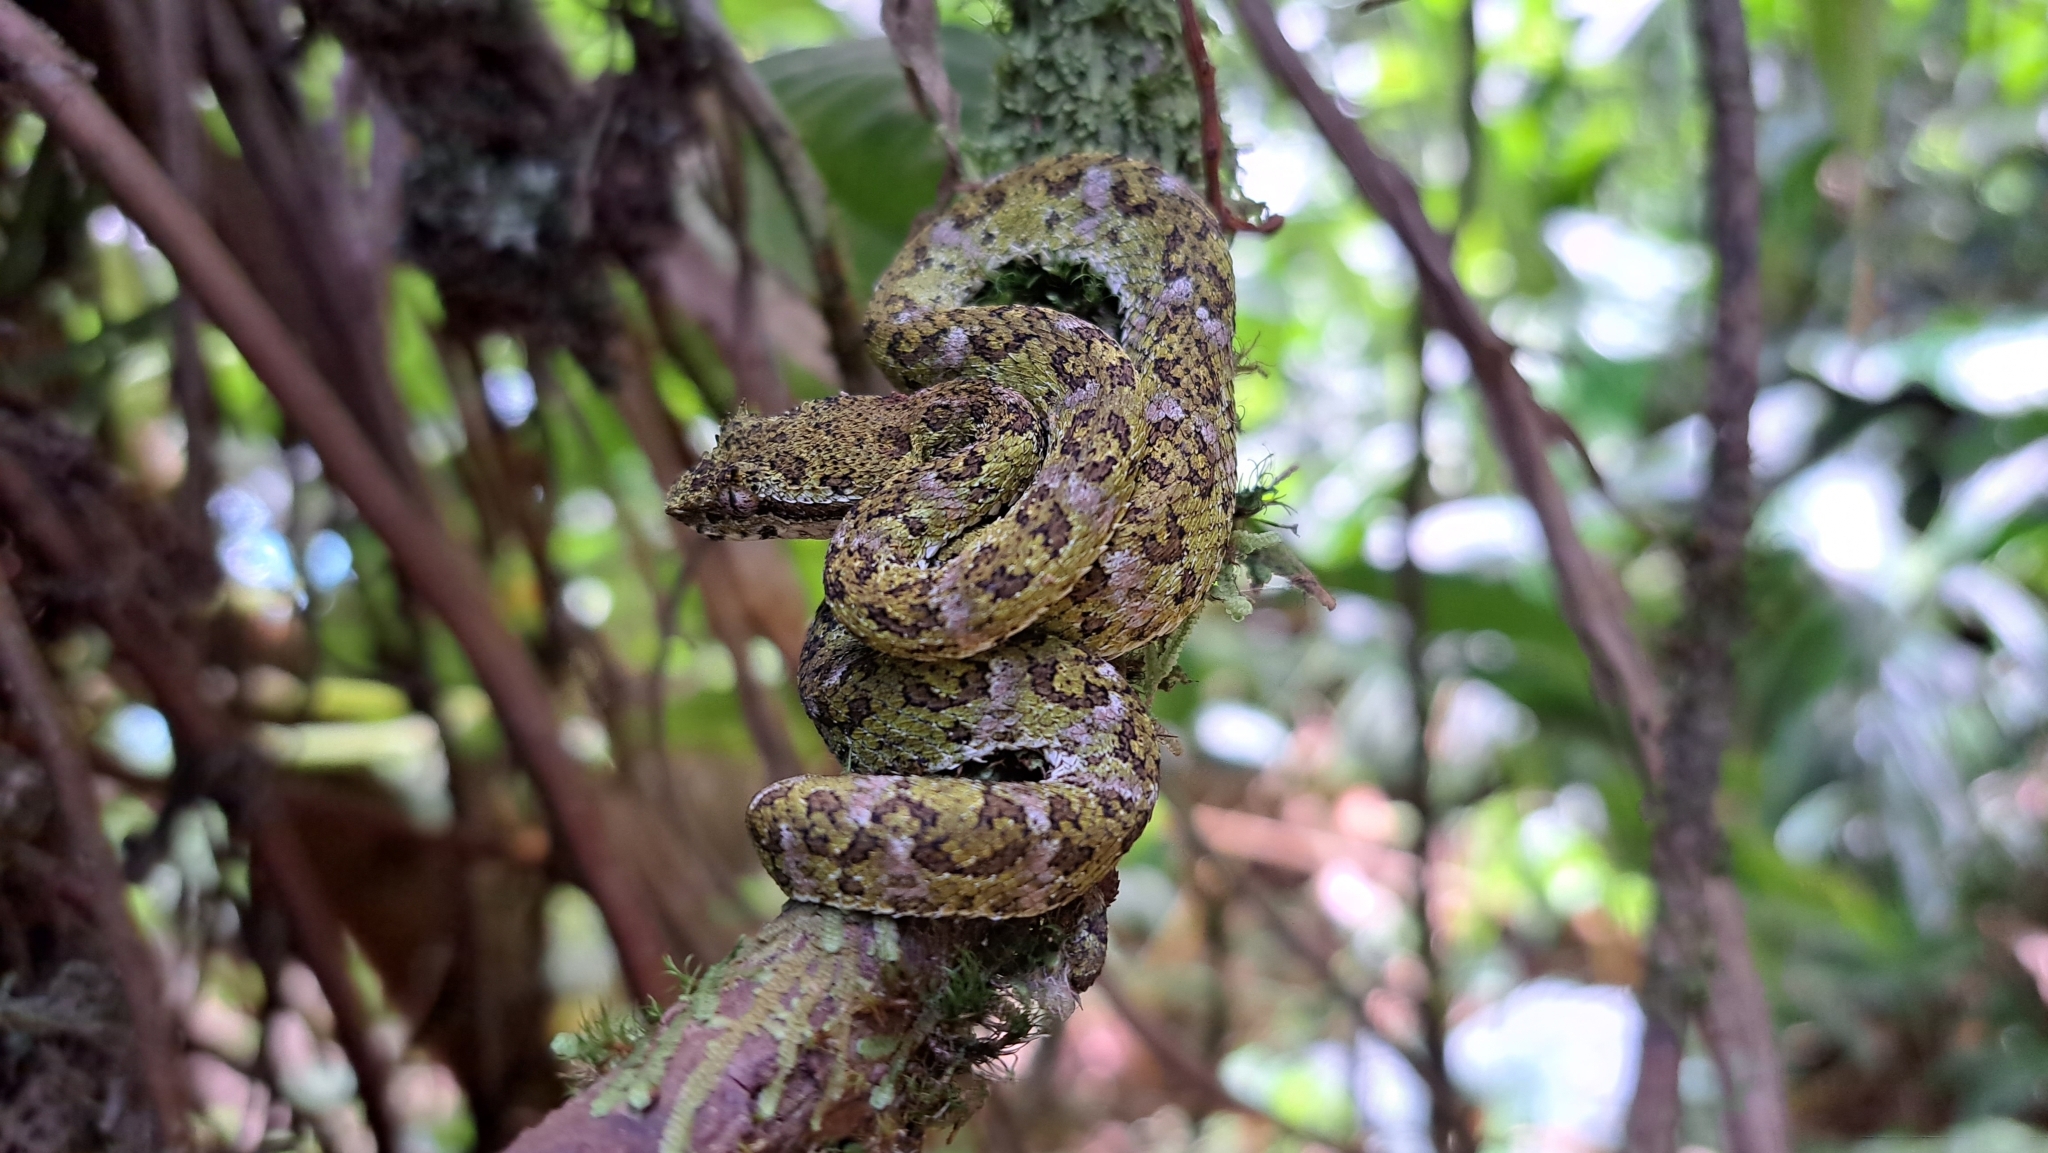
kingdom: Animalia
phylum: Chordata
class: Squamata
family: Viperidae
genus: Bothriechis
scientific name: Bothriechis schlegelii
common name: Eyelash viper
